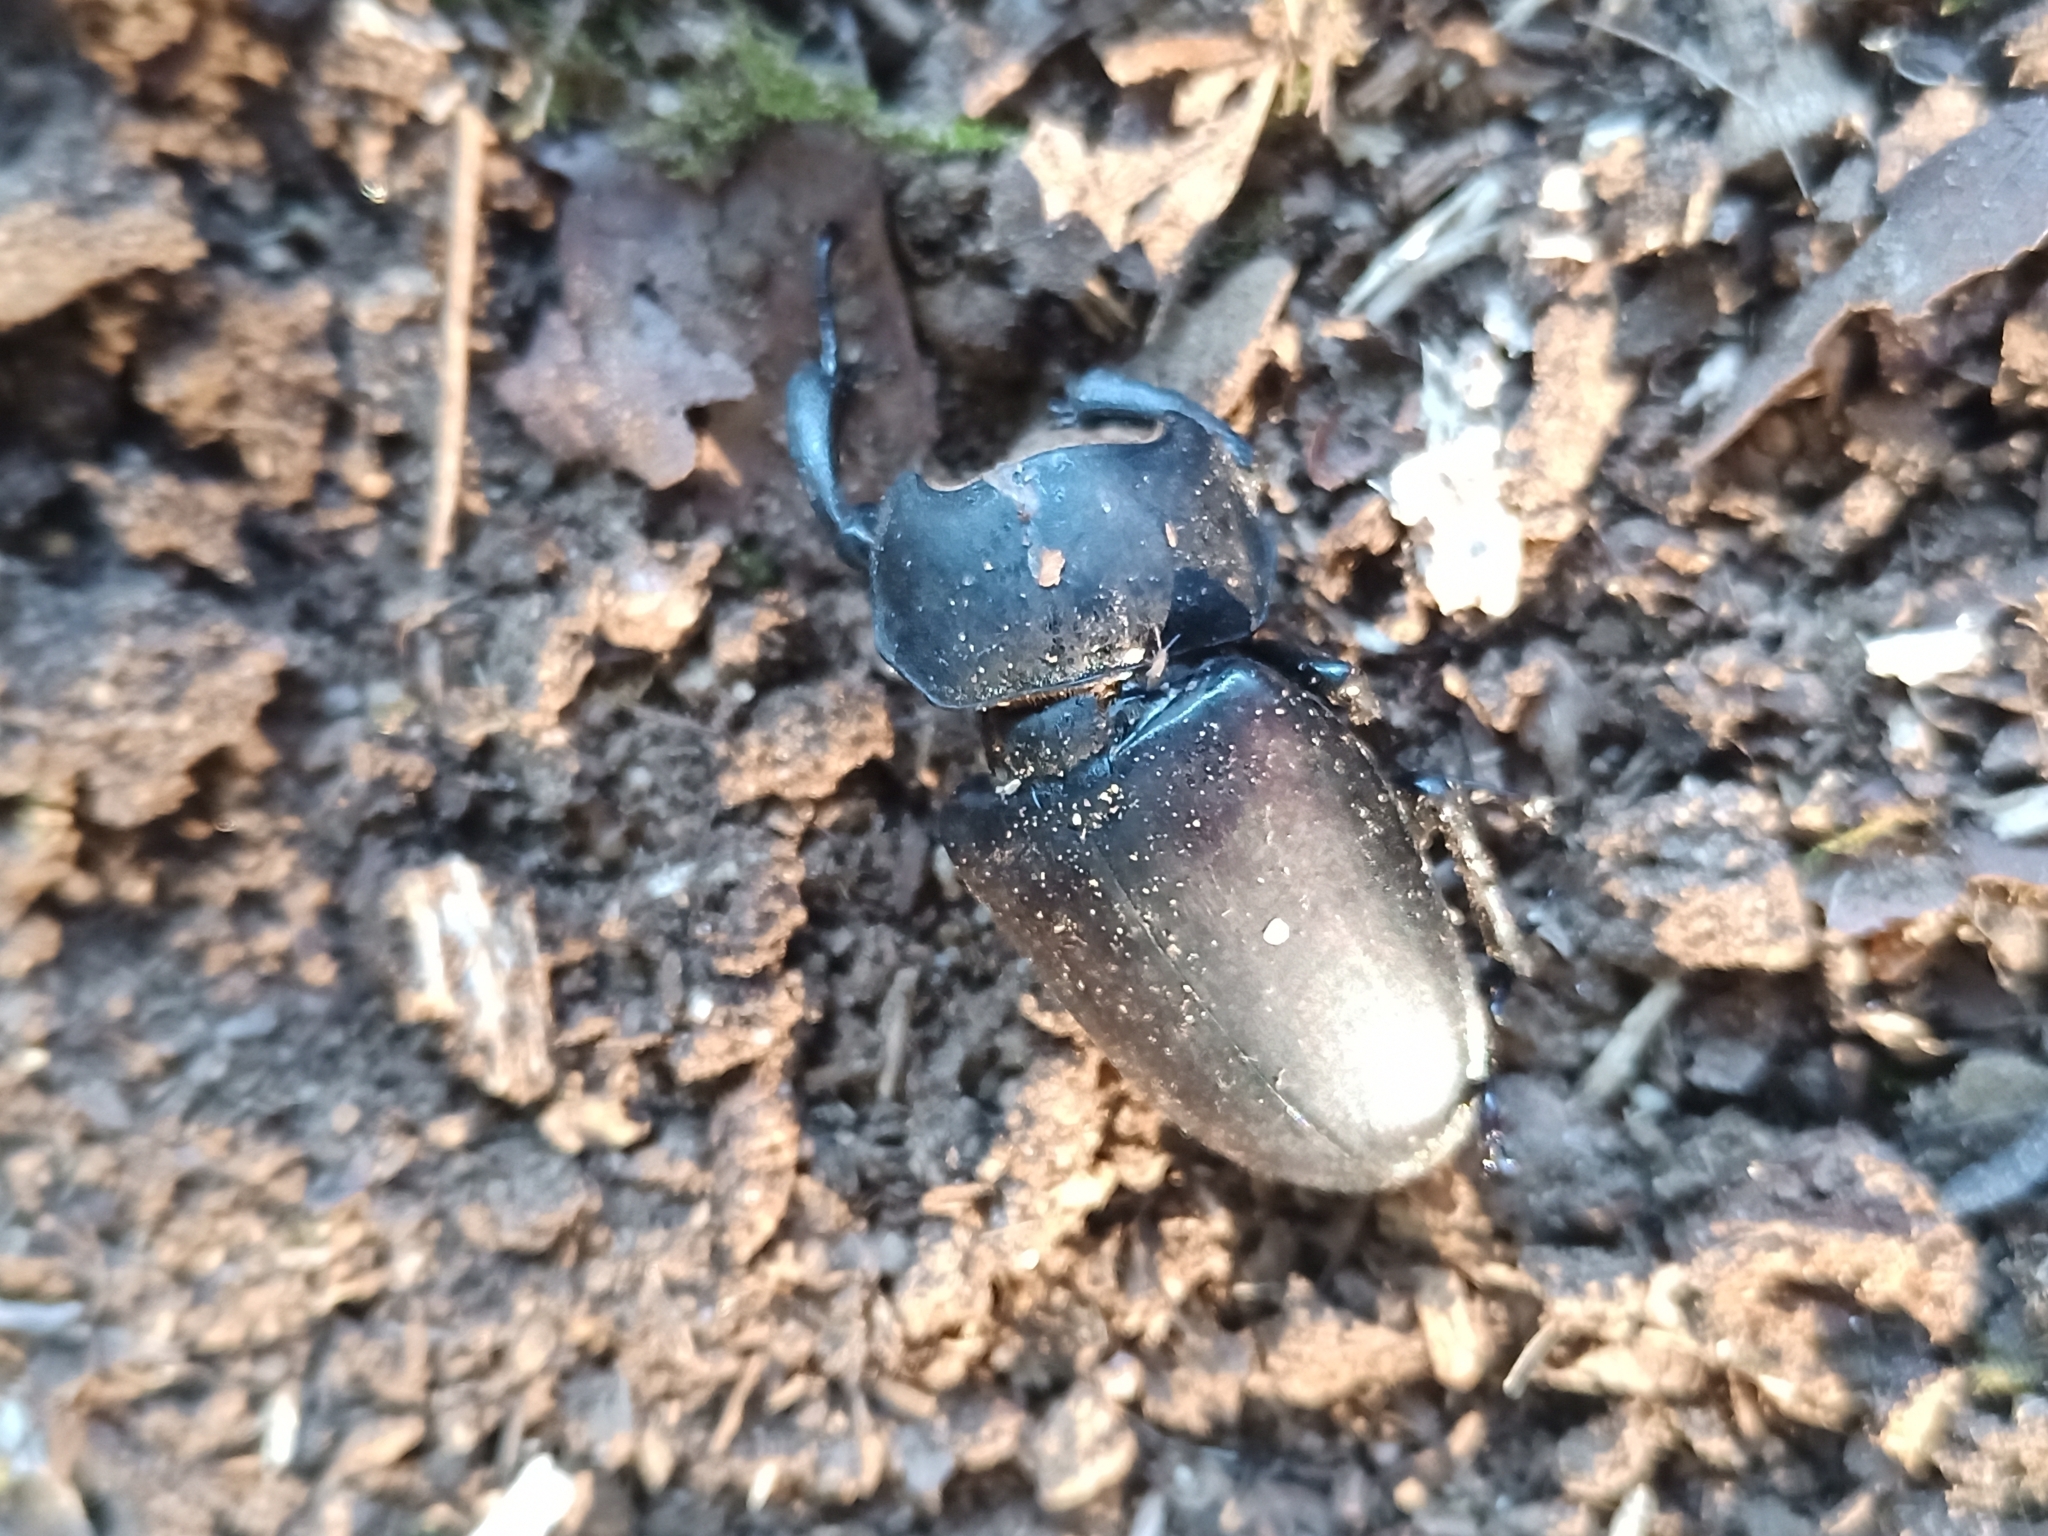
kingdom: Animalia
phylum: Arthropoda
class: Insecta
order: Coleoptera
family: Lucanidae
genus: Lucanus
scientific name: Lucanus cervus
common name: Stag beetle
